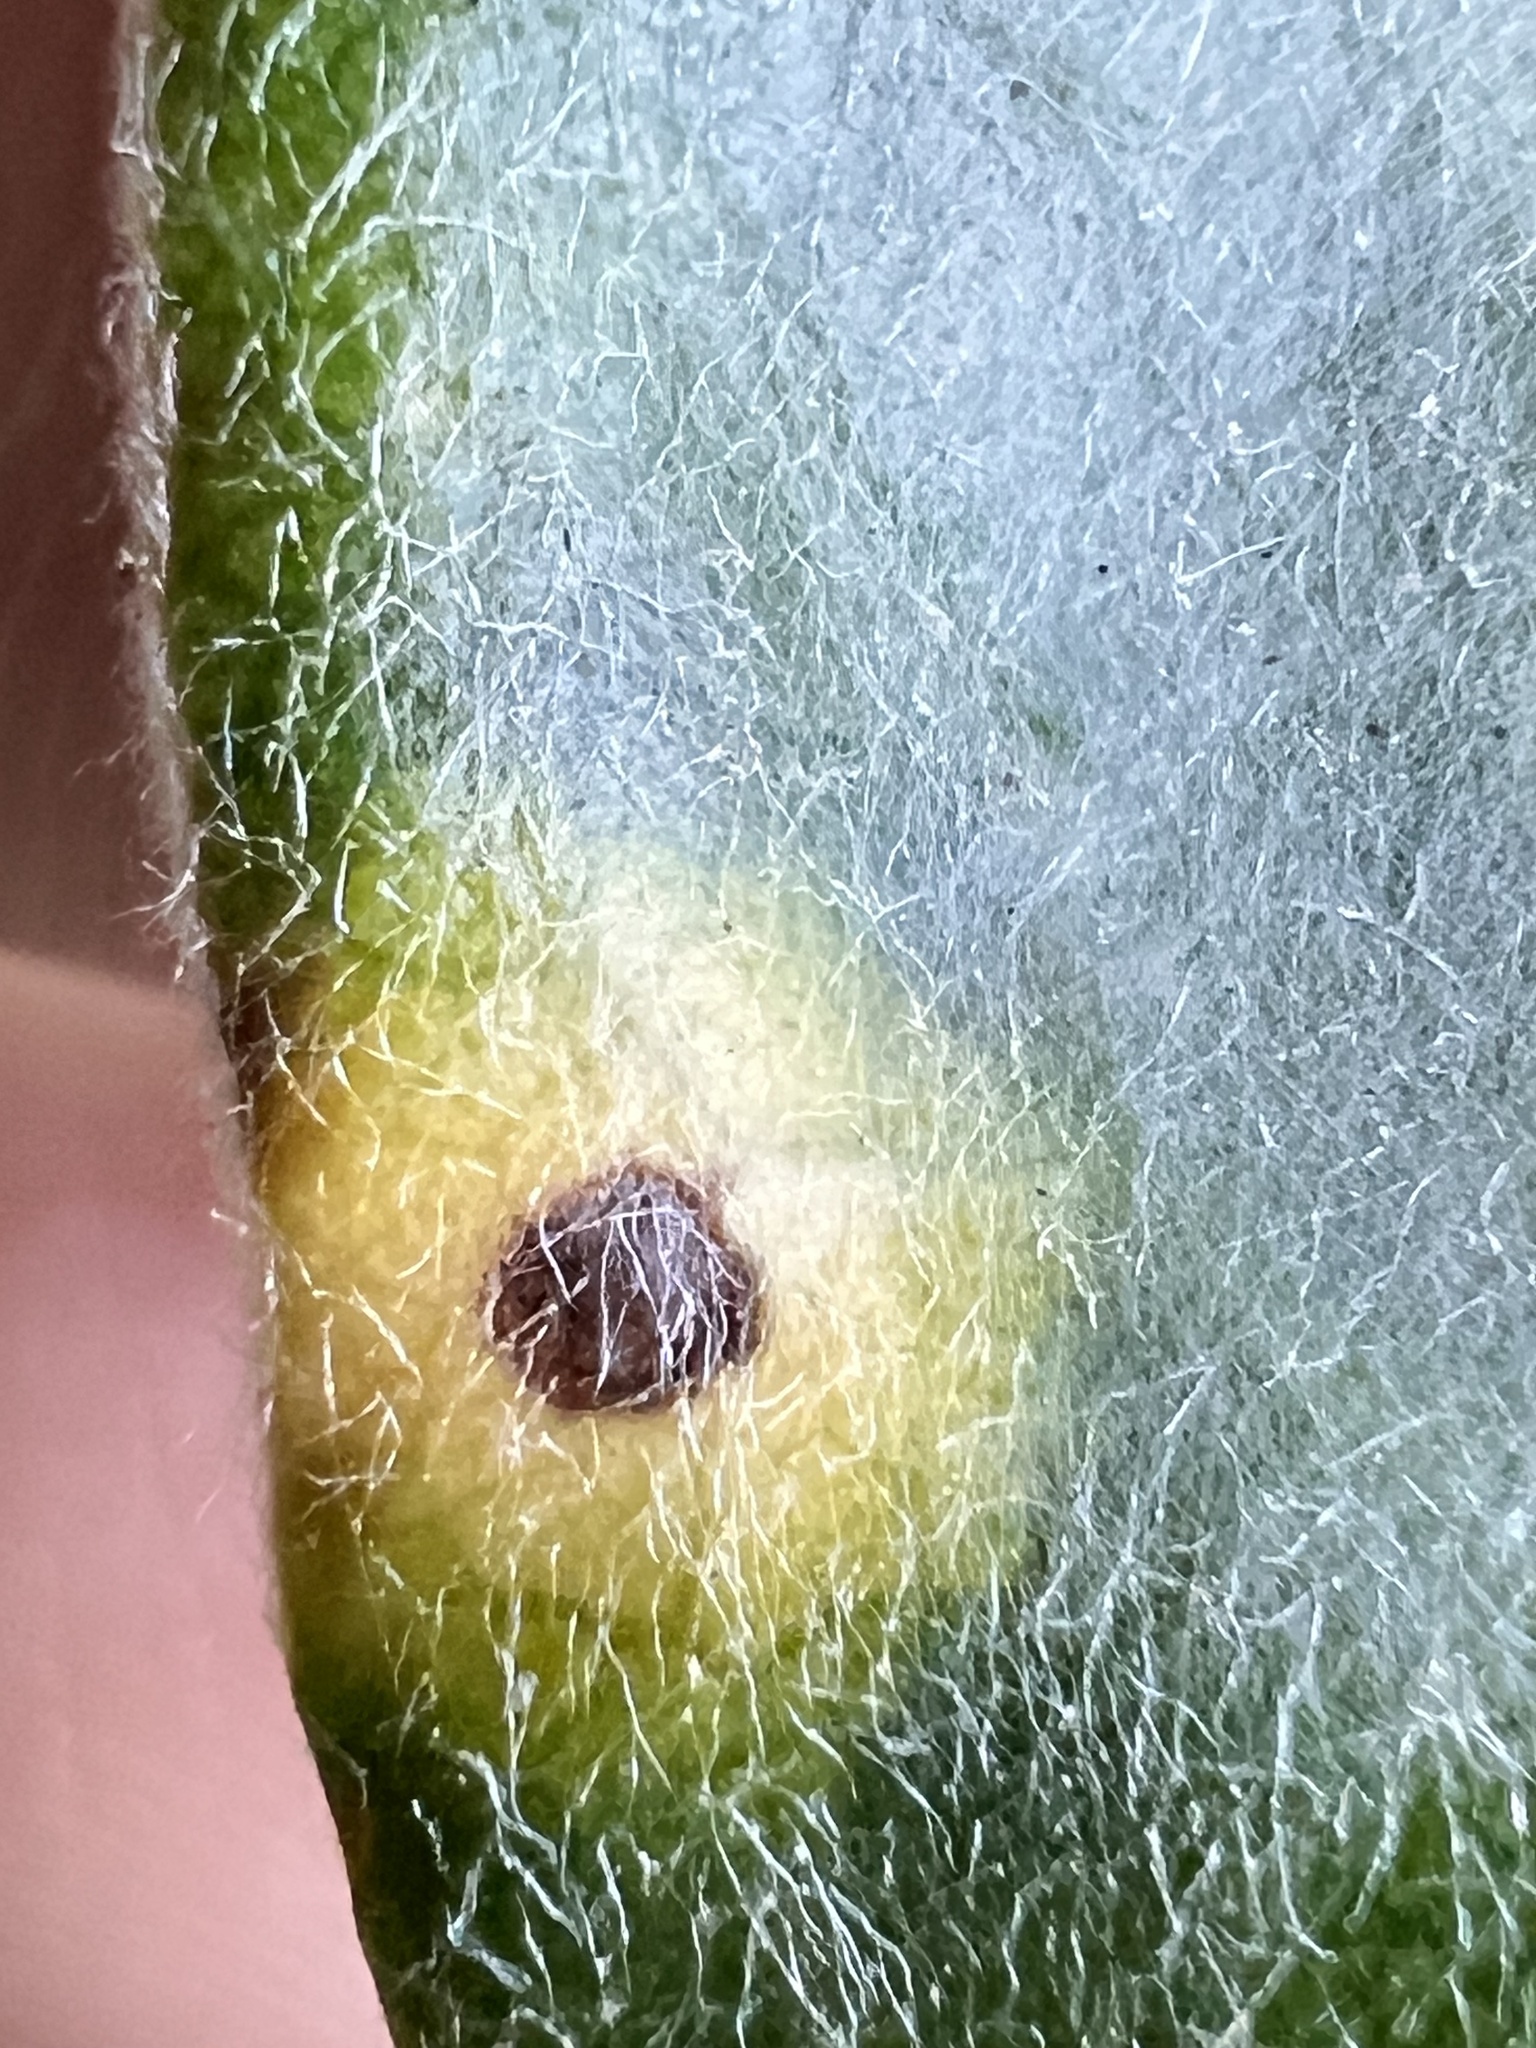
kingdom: Plantae
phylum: Tracheophyta
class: Magnoliopsida
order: Apiales
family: Pittosporaceae
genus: Pittosporum
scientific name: Pittosporum crassifolium
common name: Karo
